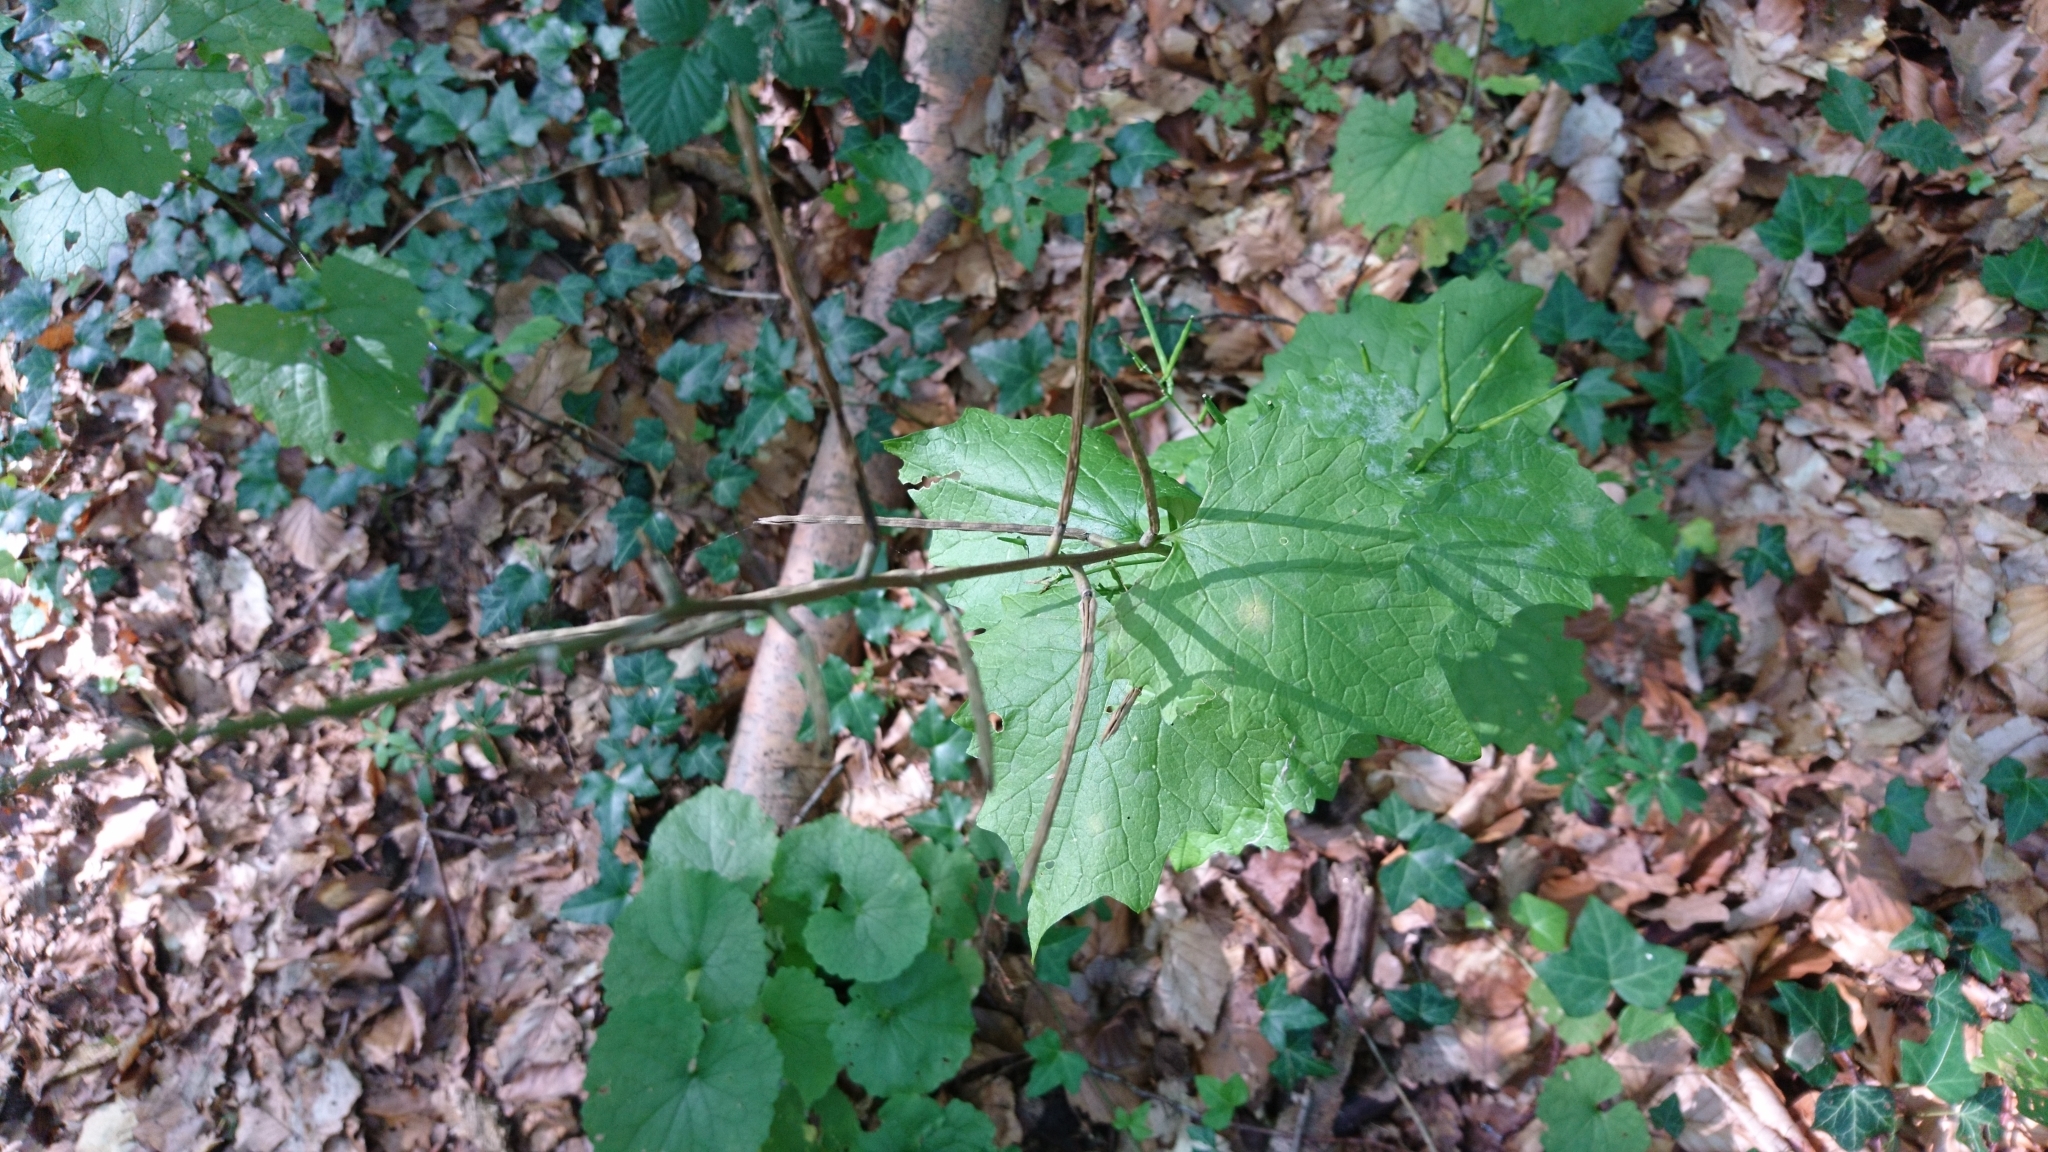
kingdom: Plantae
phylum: Tracheophyta
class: Magnoliopsida
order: Brassicales
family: Brassicaceae
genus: Alliaria
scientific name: Alliaria petiolata
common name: Garlic mustard
